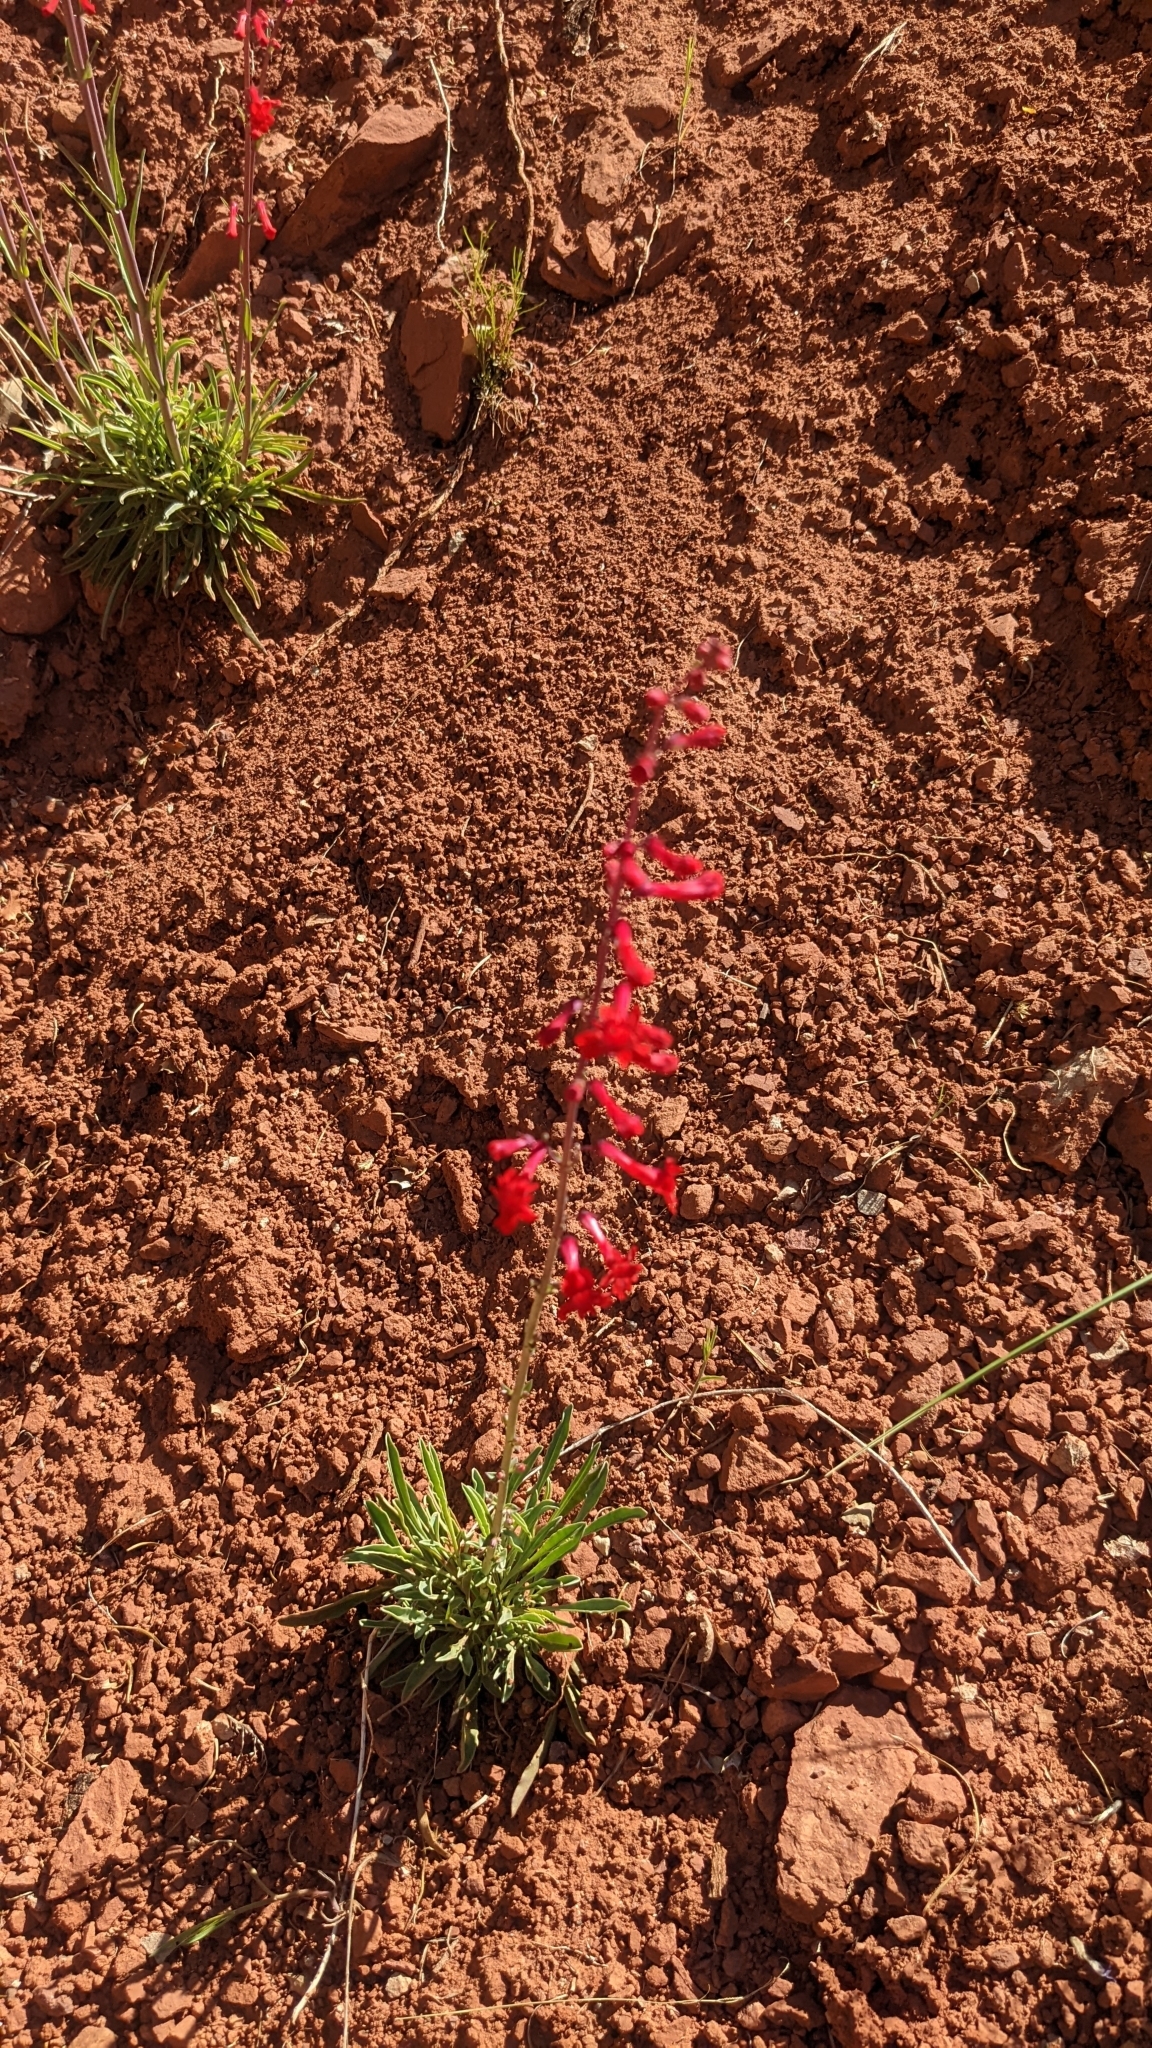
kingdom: Plantae
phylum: Tracheophyta
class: Magnoliopsida
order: Lamiales
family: Plantaginaceae
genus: Penstemon
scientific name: Penstemon utahensis
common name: Utah penstemon
